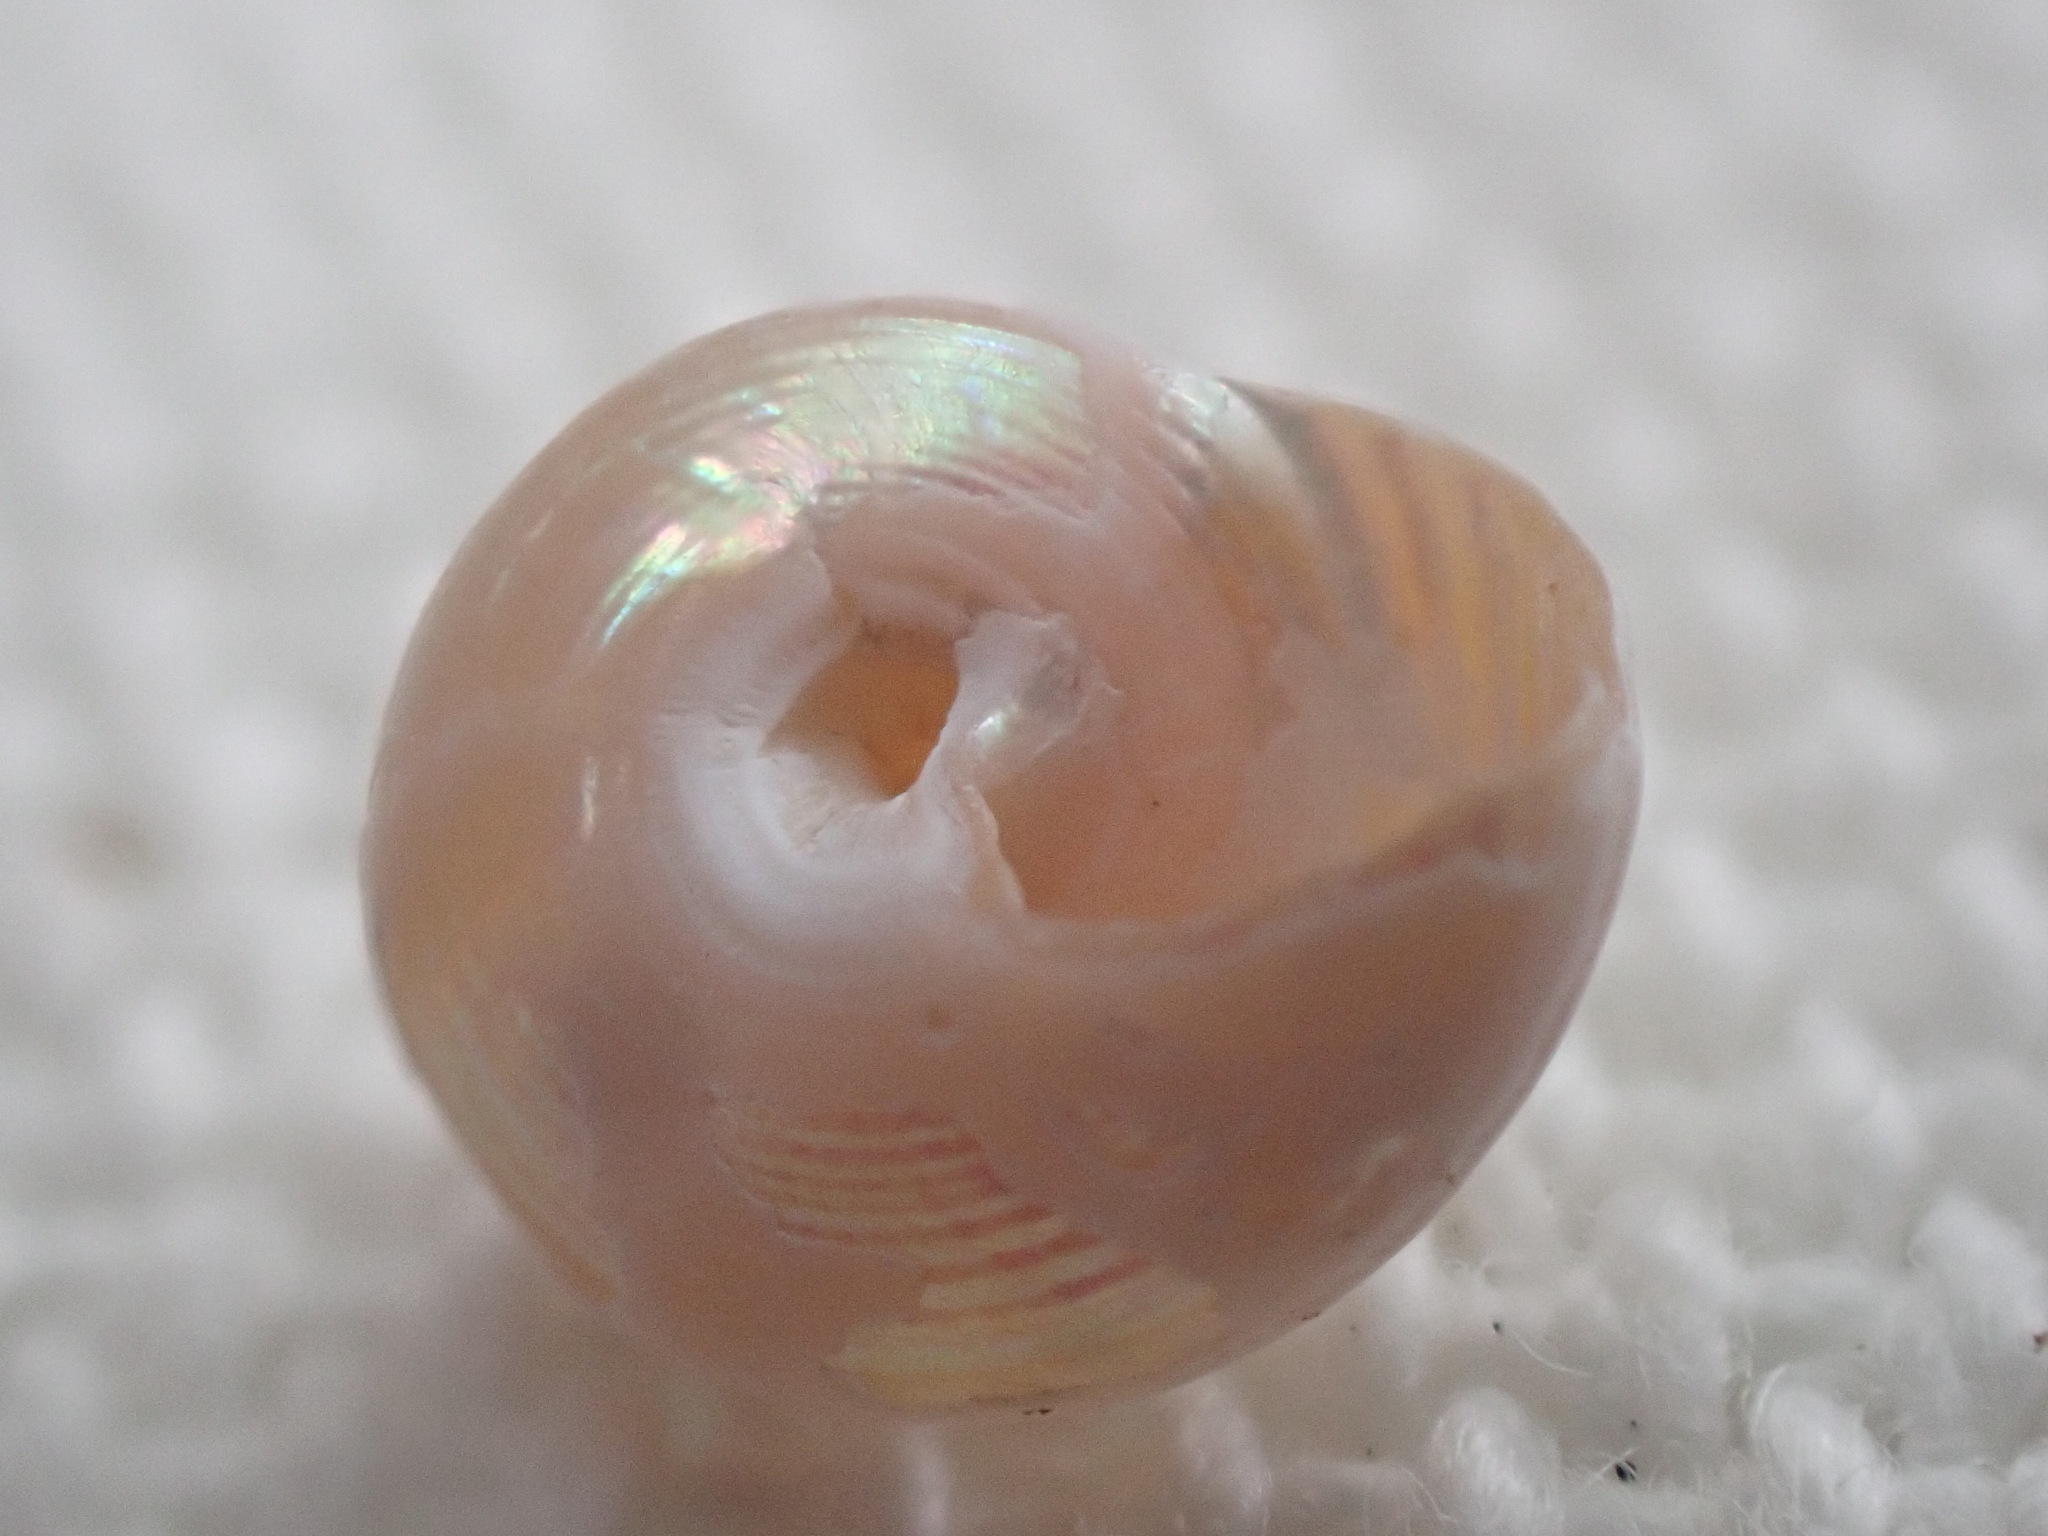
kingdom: Animalia
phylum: Mollusca
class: Gastropoda
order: Trochida
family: Margaritidae
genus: Margarites
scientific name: Margarites pupillus
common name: Puppet margarite
